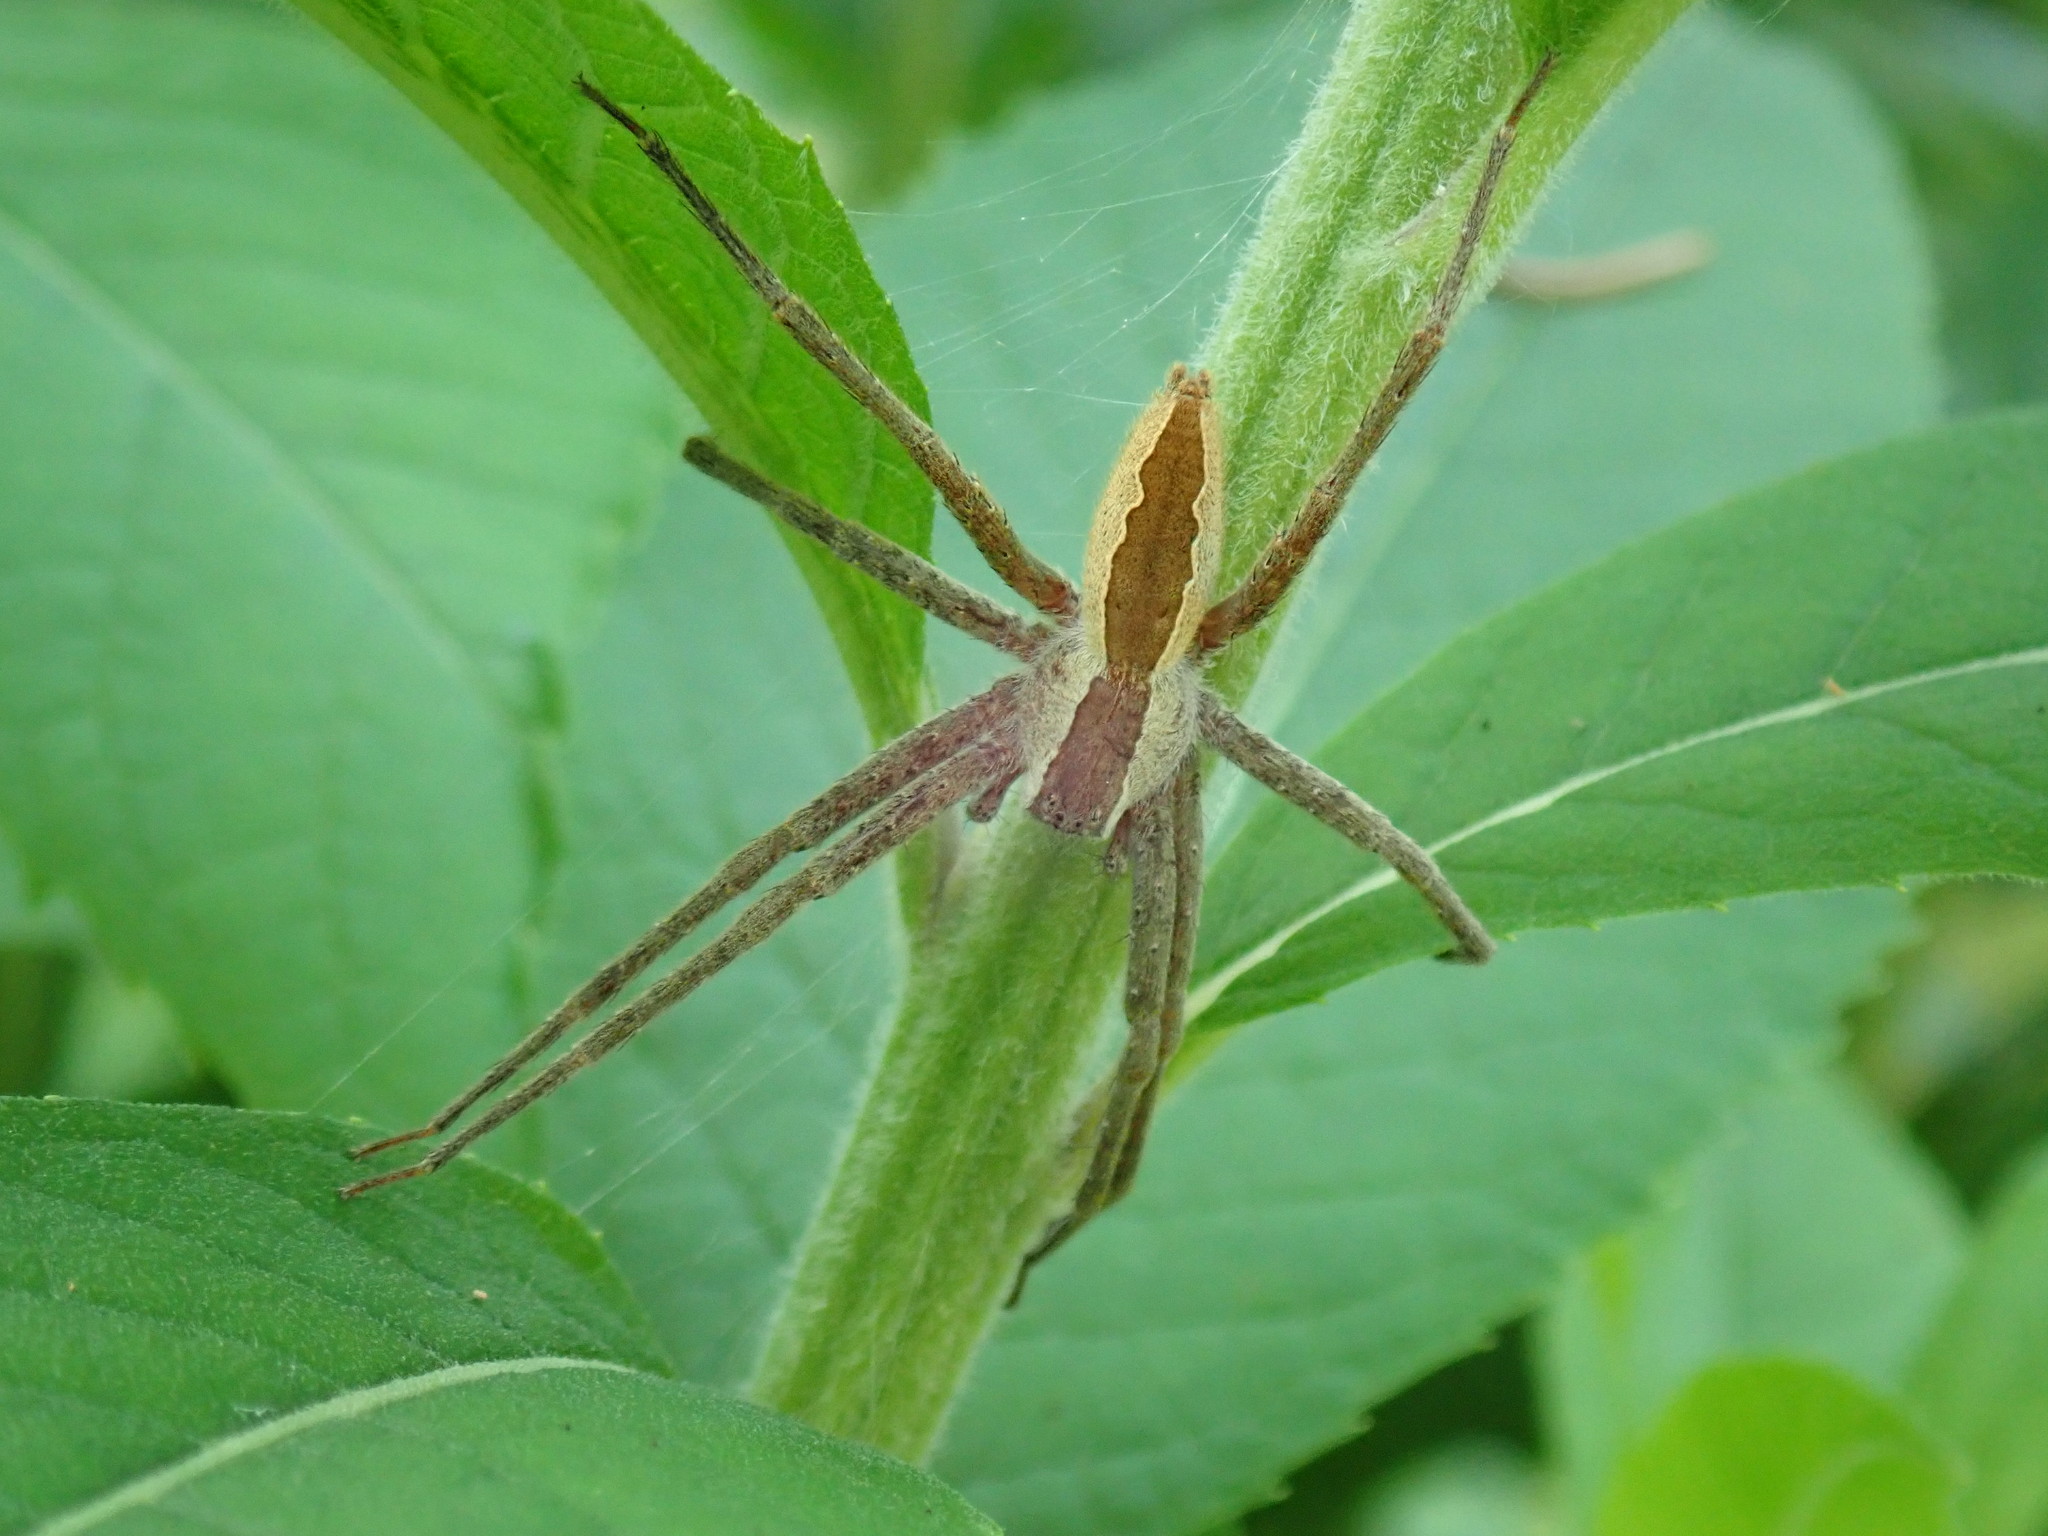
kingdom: Animalia
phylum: Arthropoda
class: Arachnida
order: Araneae
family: Pisauridae
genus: Pisaurina
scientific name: Pisaurina mira
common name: American nursery web spider
